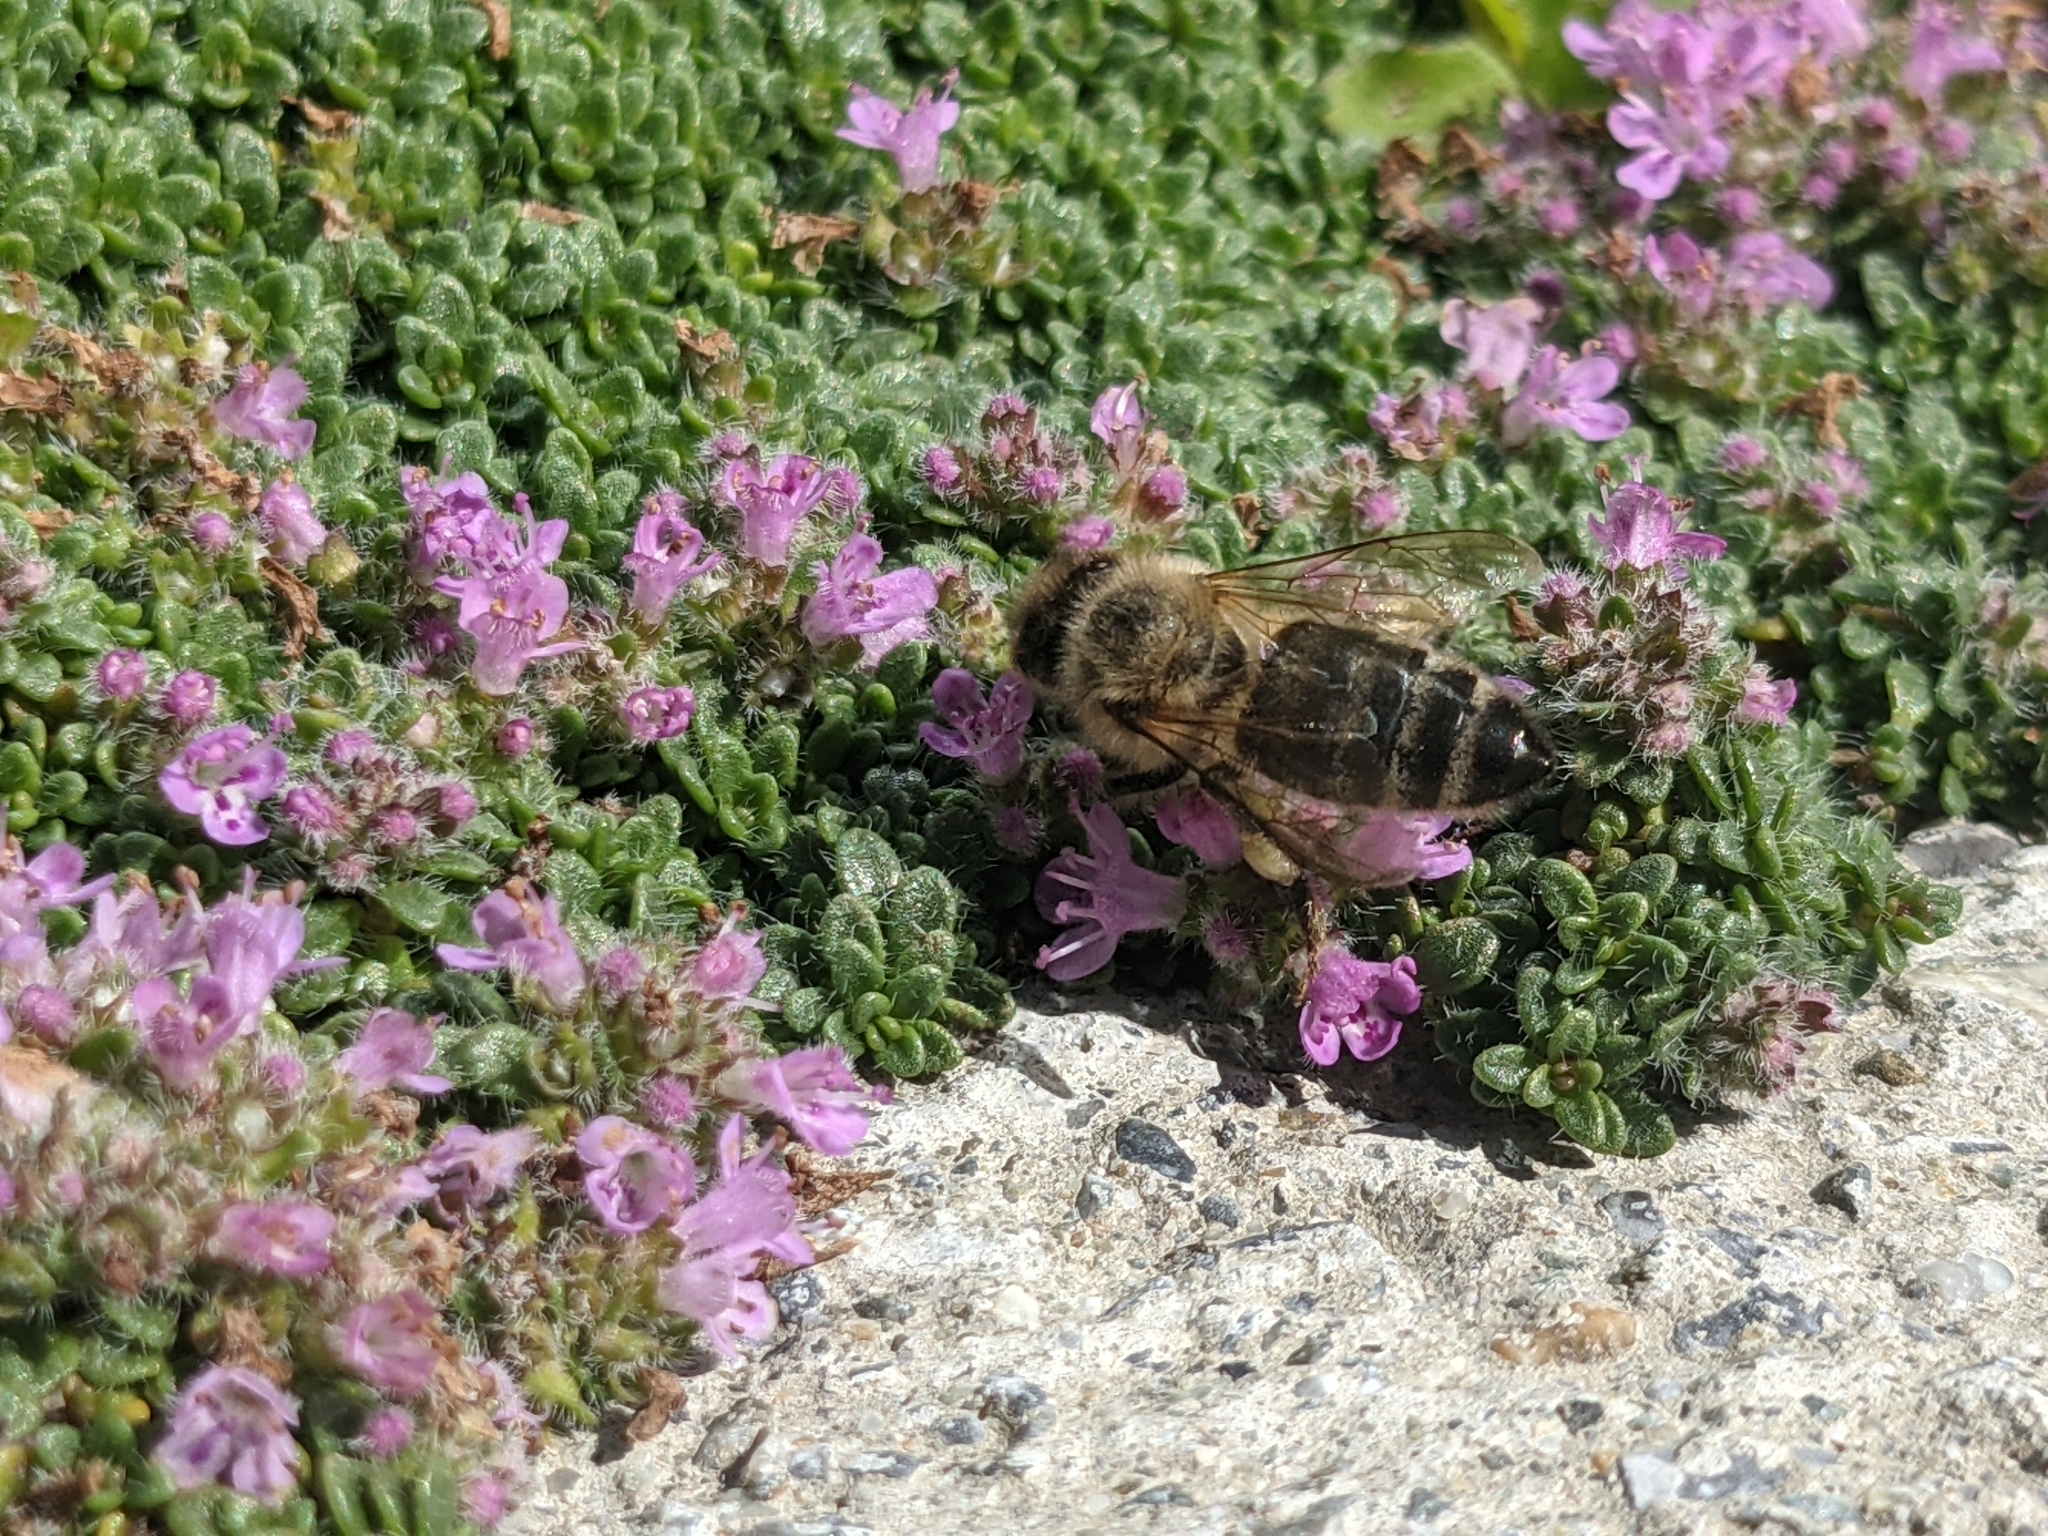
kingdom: Animalia
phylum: Arthropoda
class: Insecta
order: Hymenoptera
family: Apidae
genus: Apis
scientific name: Apis mellifera
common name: Honey bee
